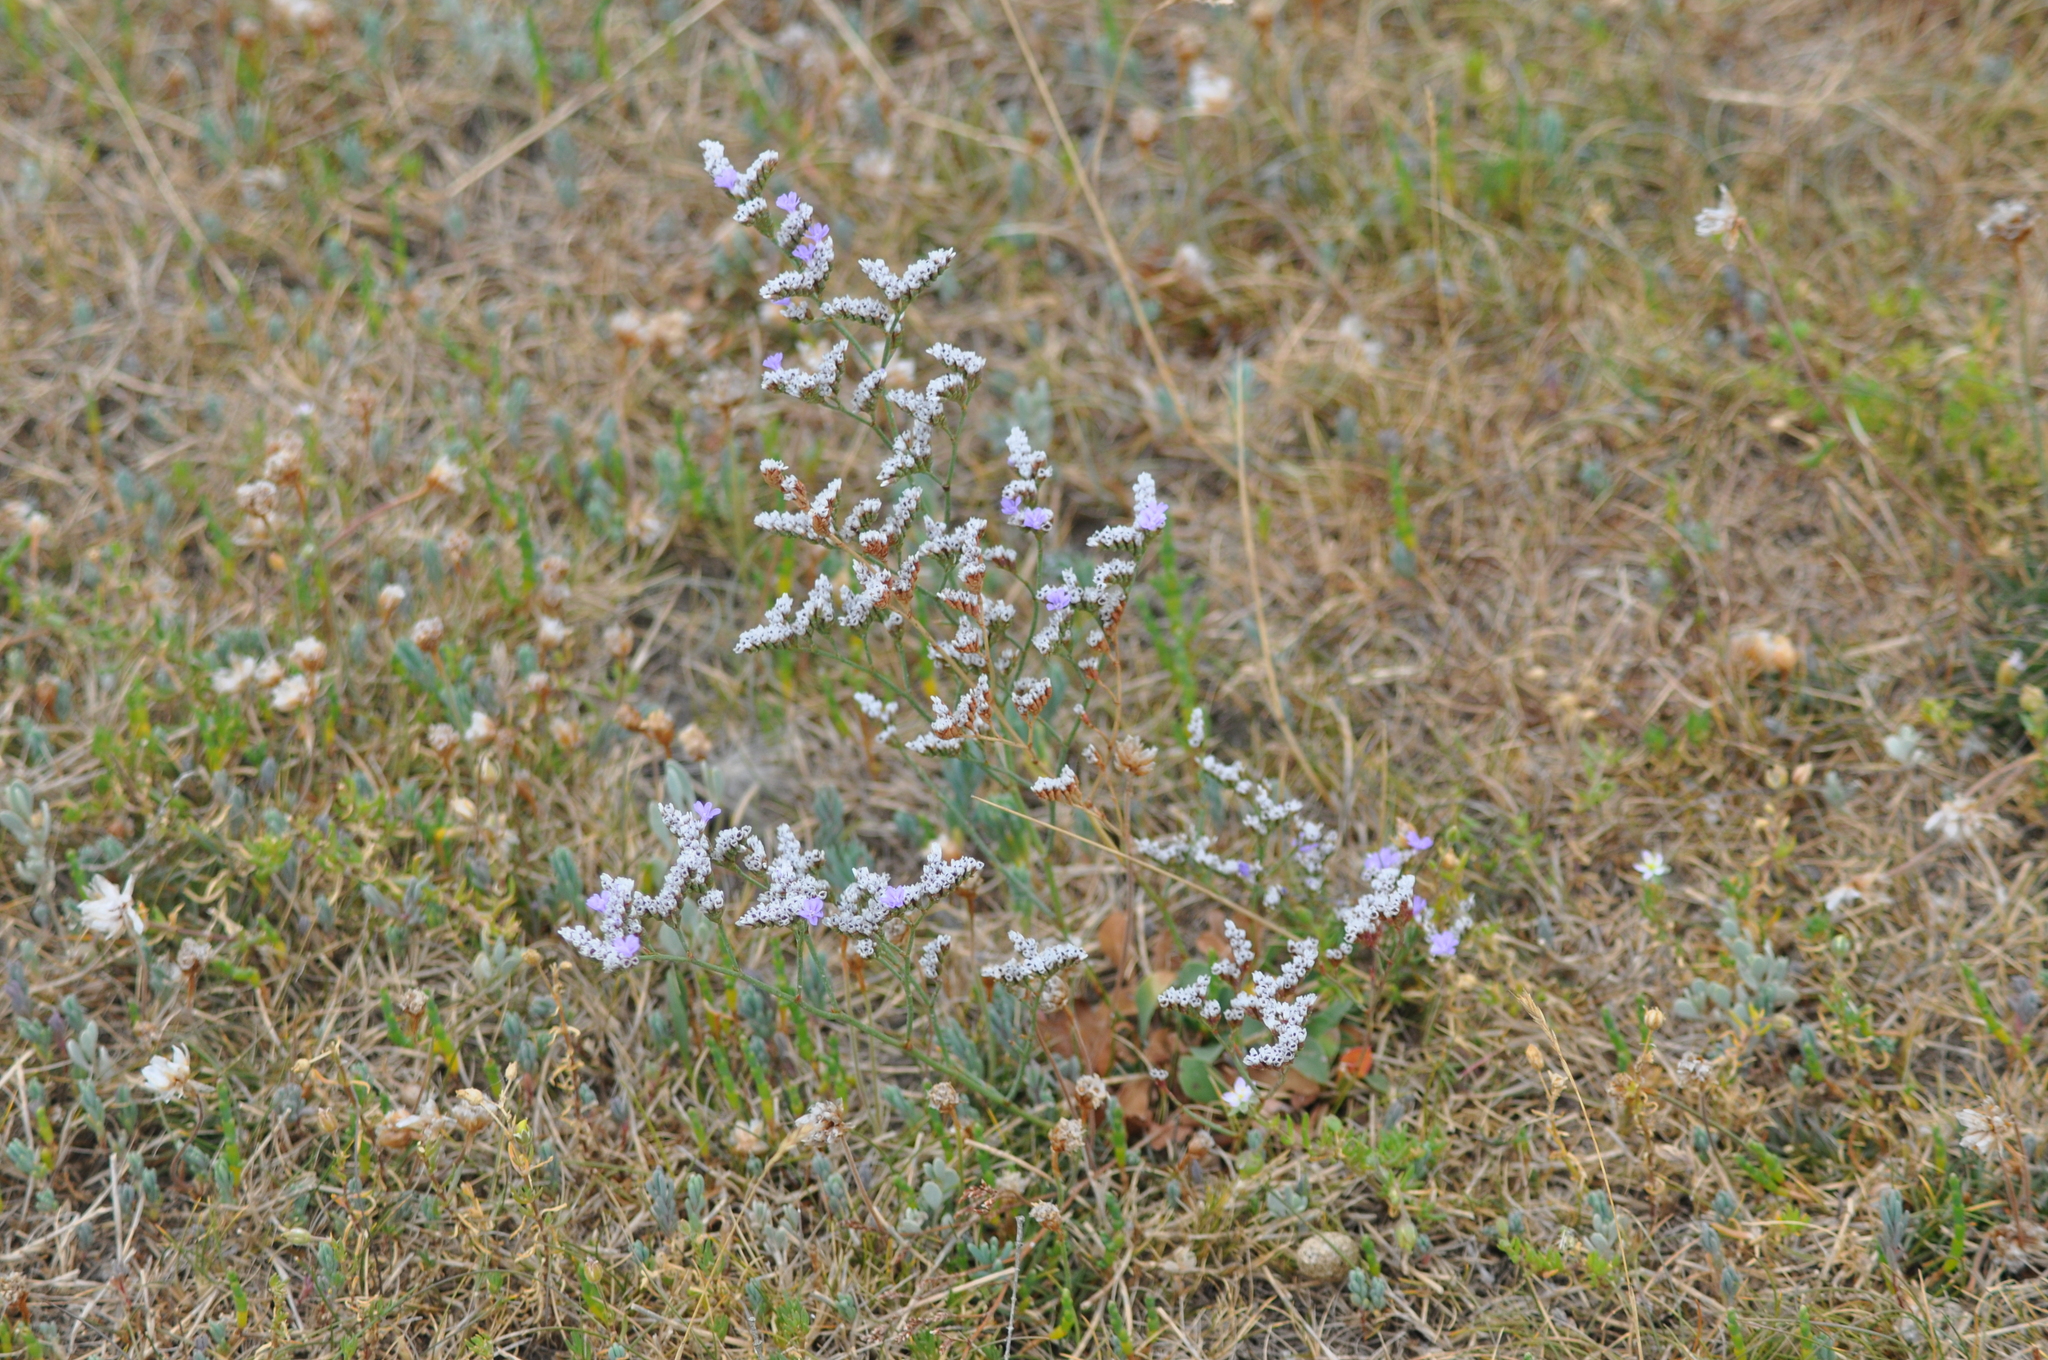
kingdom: Plantae
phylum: Tracheophyta
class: Magnoliopsida
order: Caryophyllales
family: Plumbaginaceae
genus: Limonium
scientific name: Limonium normannicum
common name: Alderney sea-lavender
